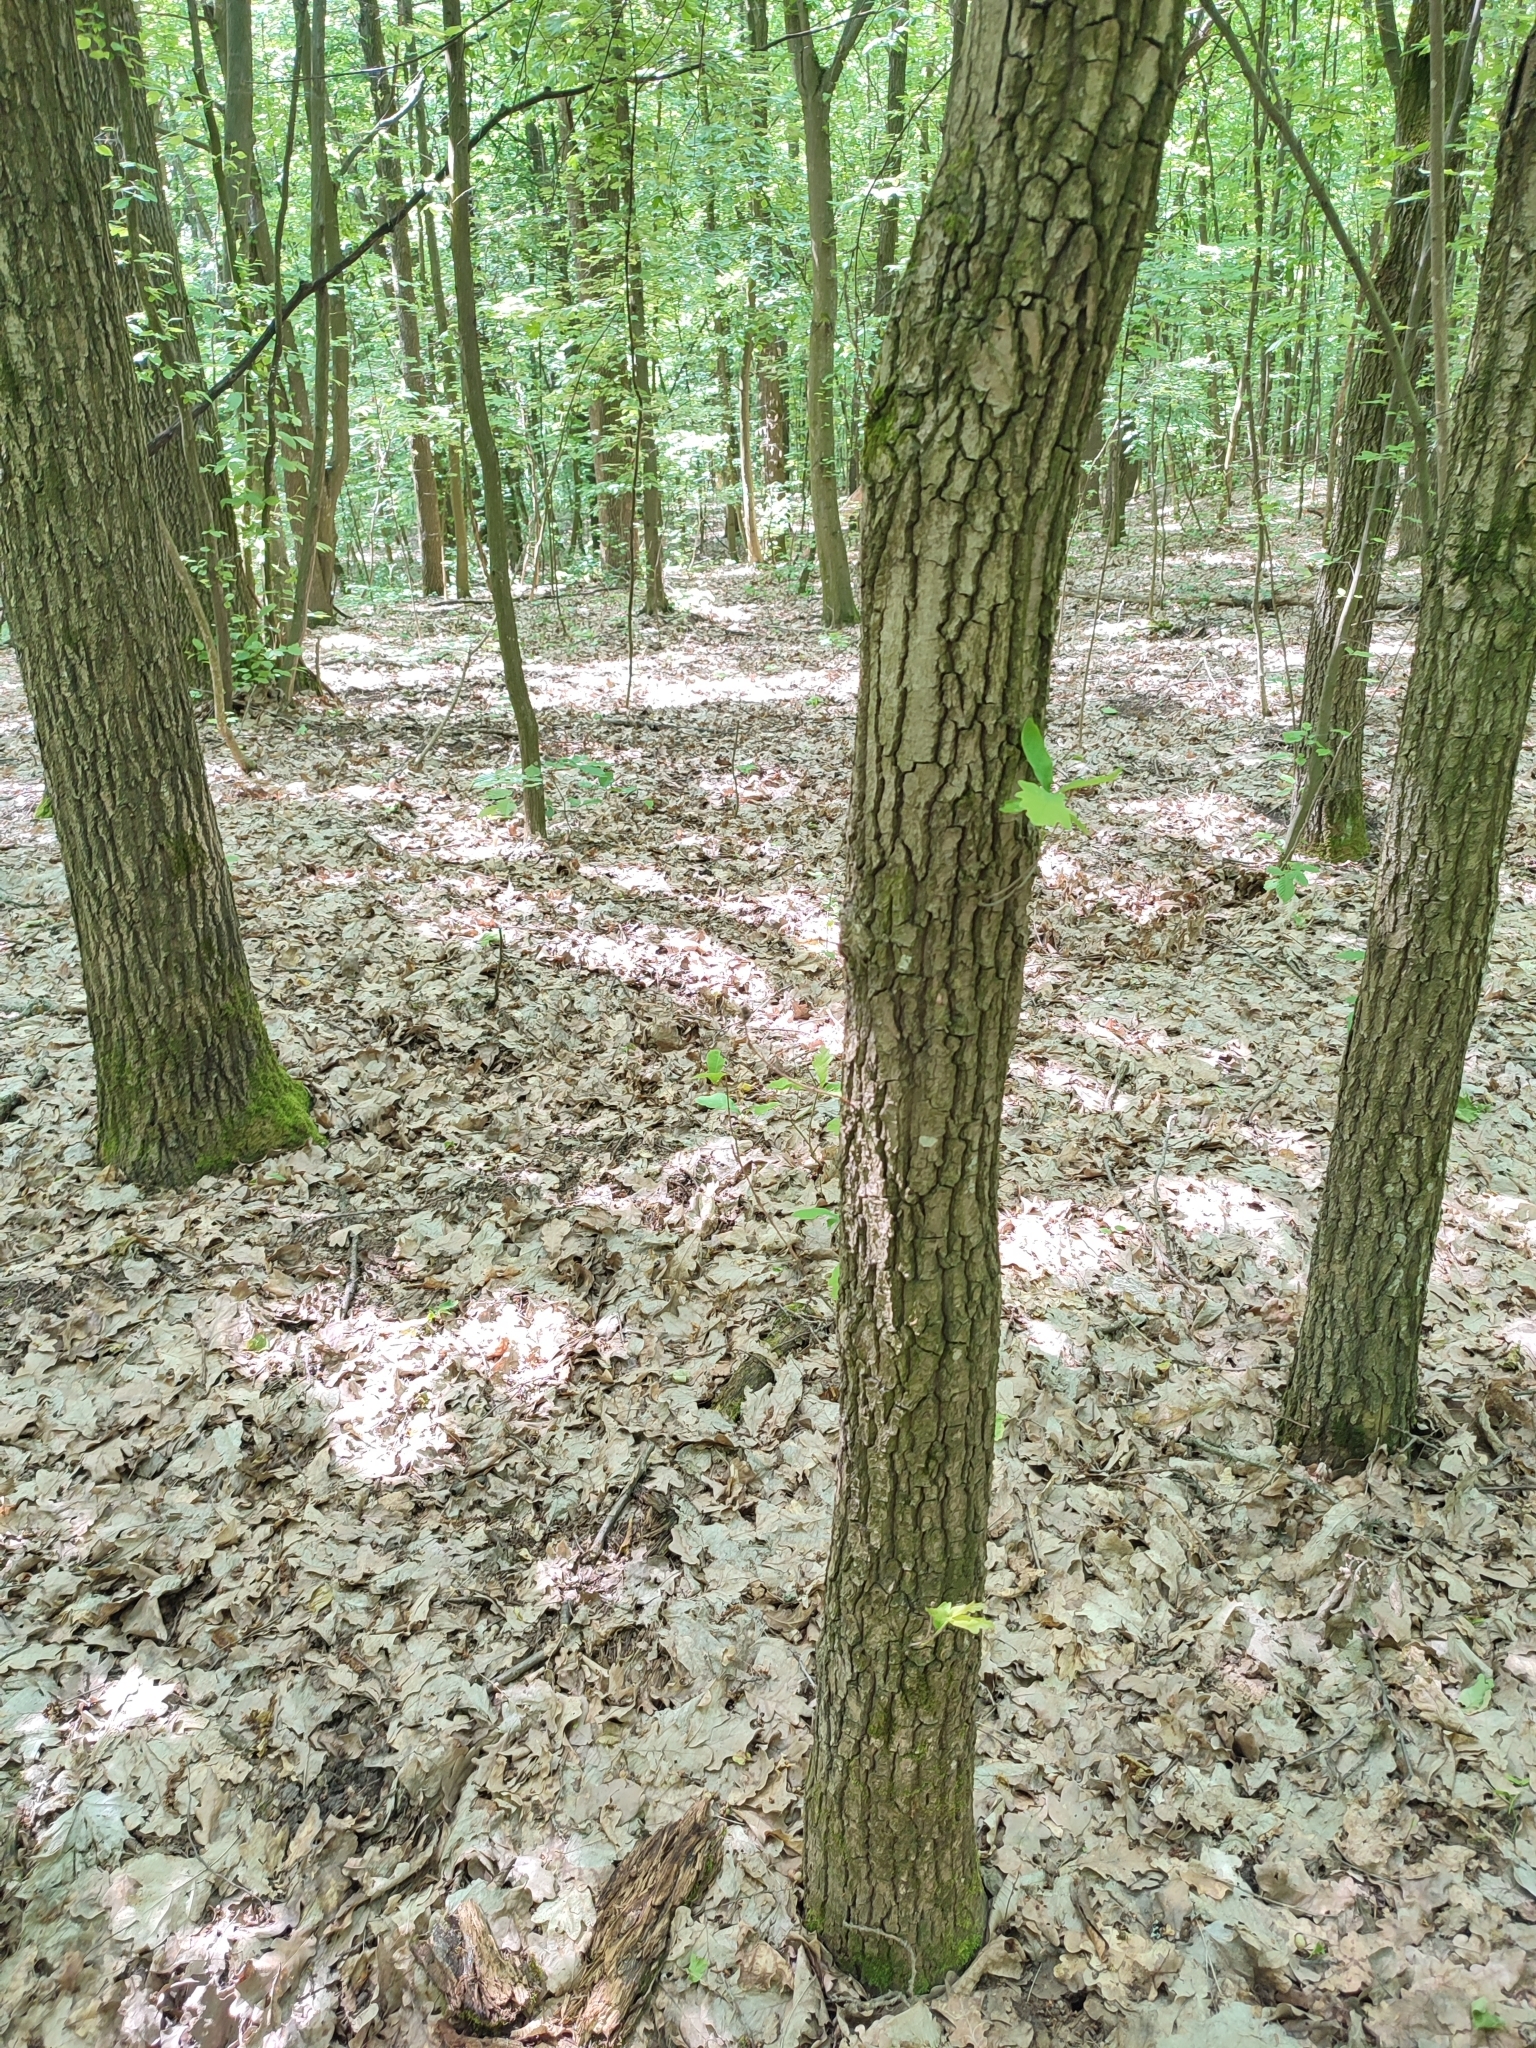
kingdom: Plantae
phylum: Tracheophyta
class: Magnoliopsida
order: Fagales
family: Fagaceae
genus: Quercus
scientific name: Quercus robur
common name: Pedunculate oak
